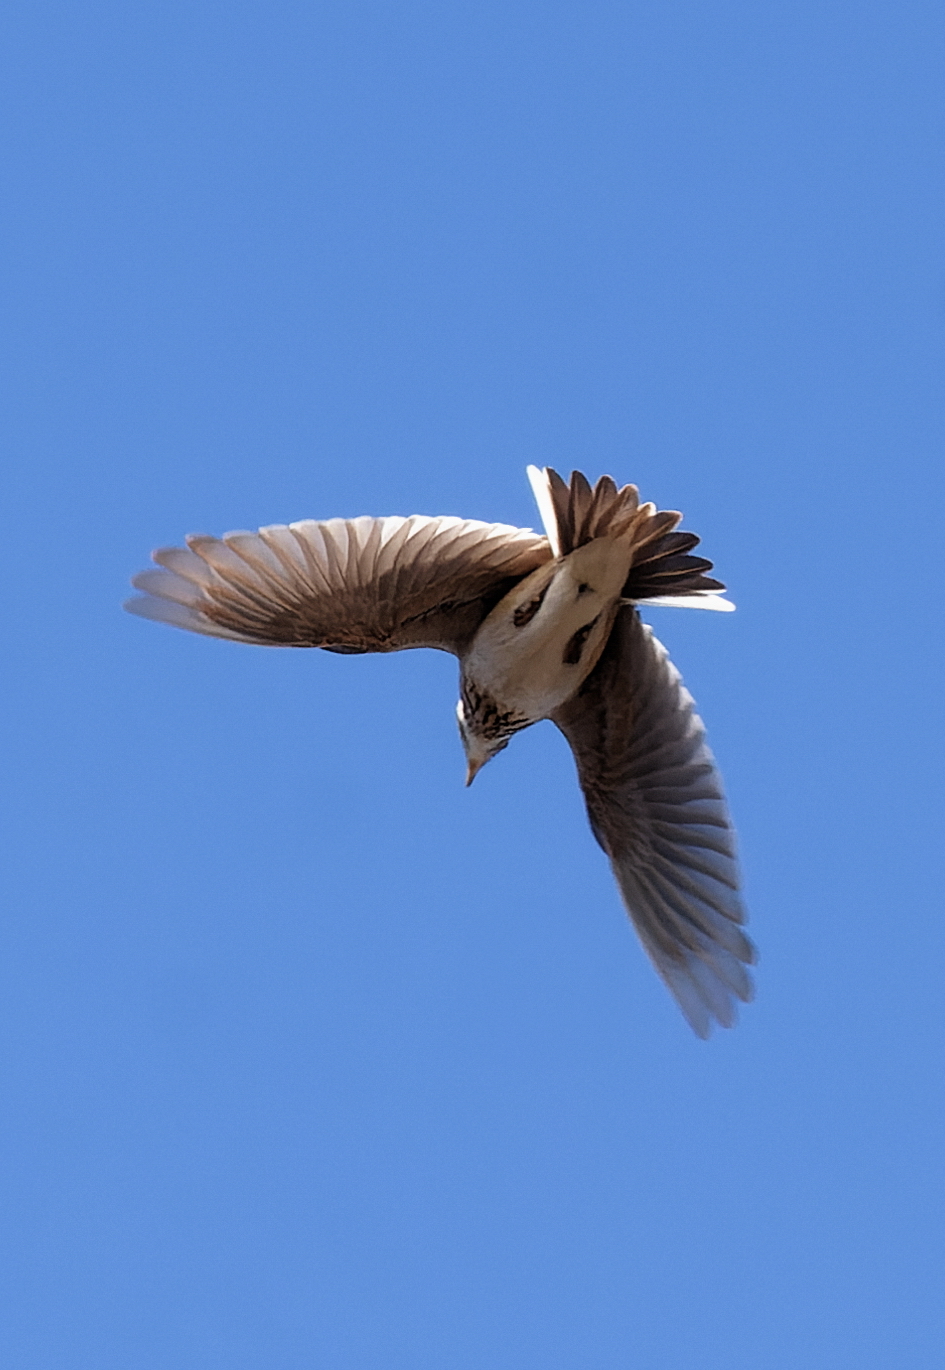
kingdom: Animalia
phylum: Chordata
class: Aves
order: Passeriformes
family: Alaudidae
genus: Alauda
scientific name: Alauda arvensis
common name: Eurasian skylark
